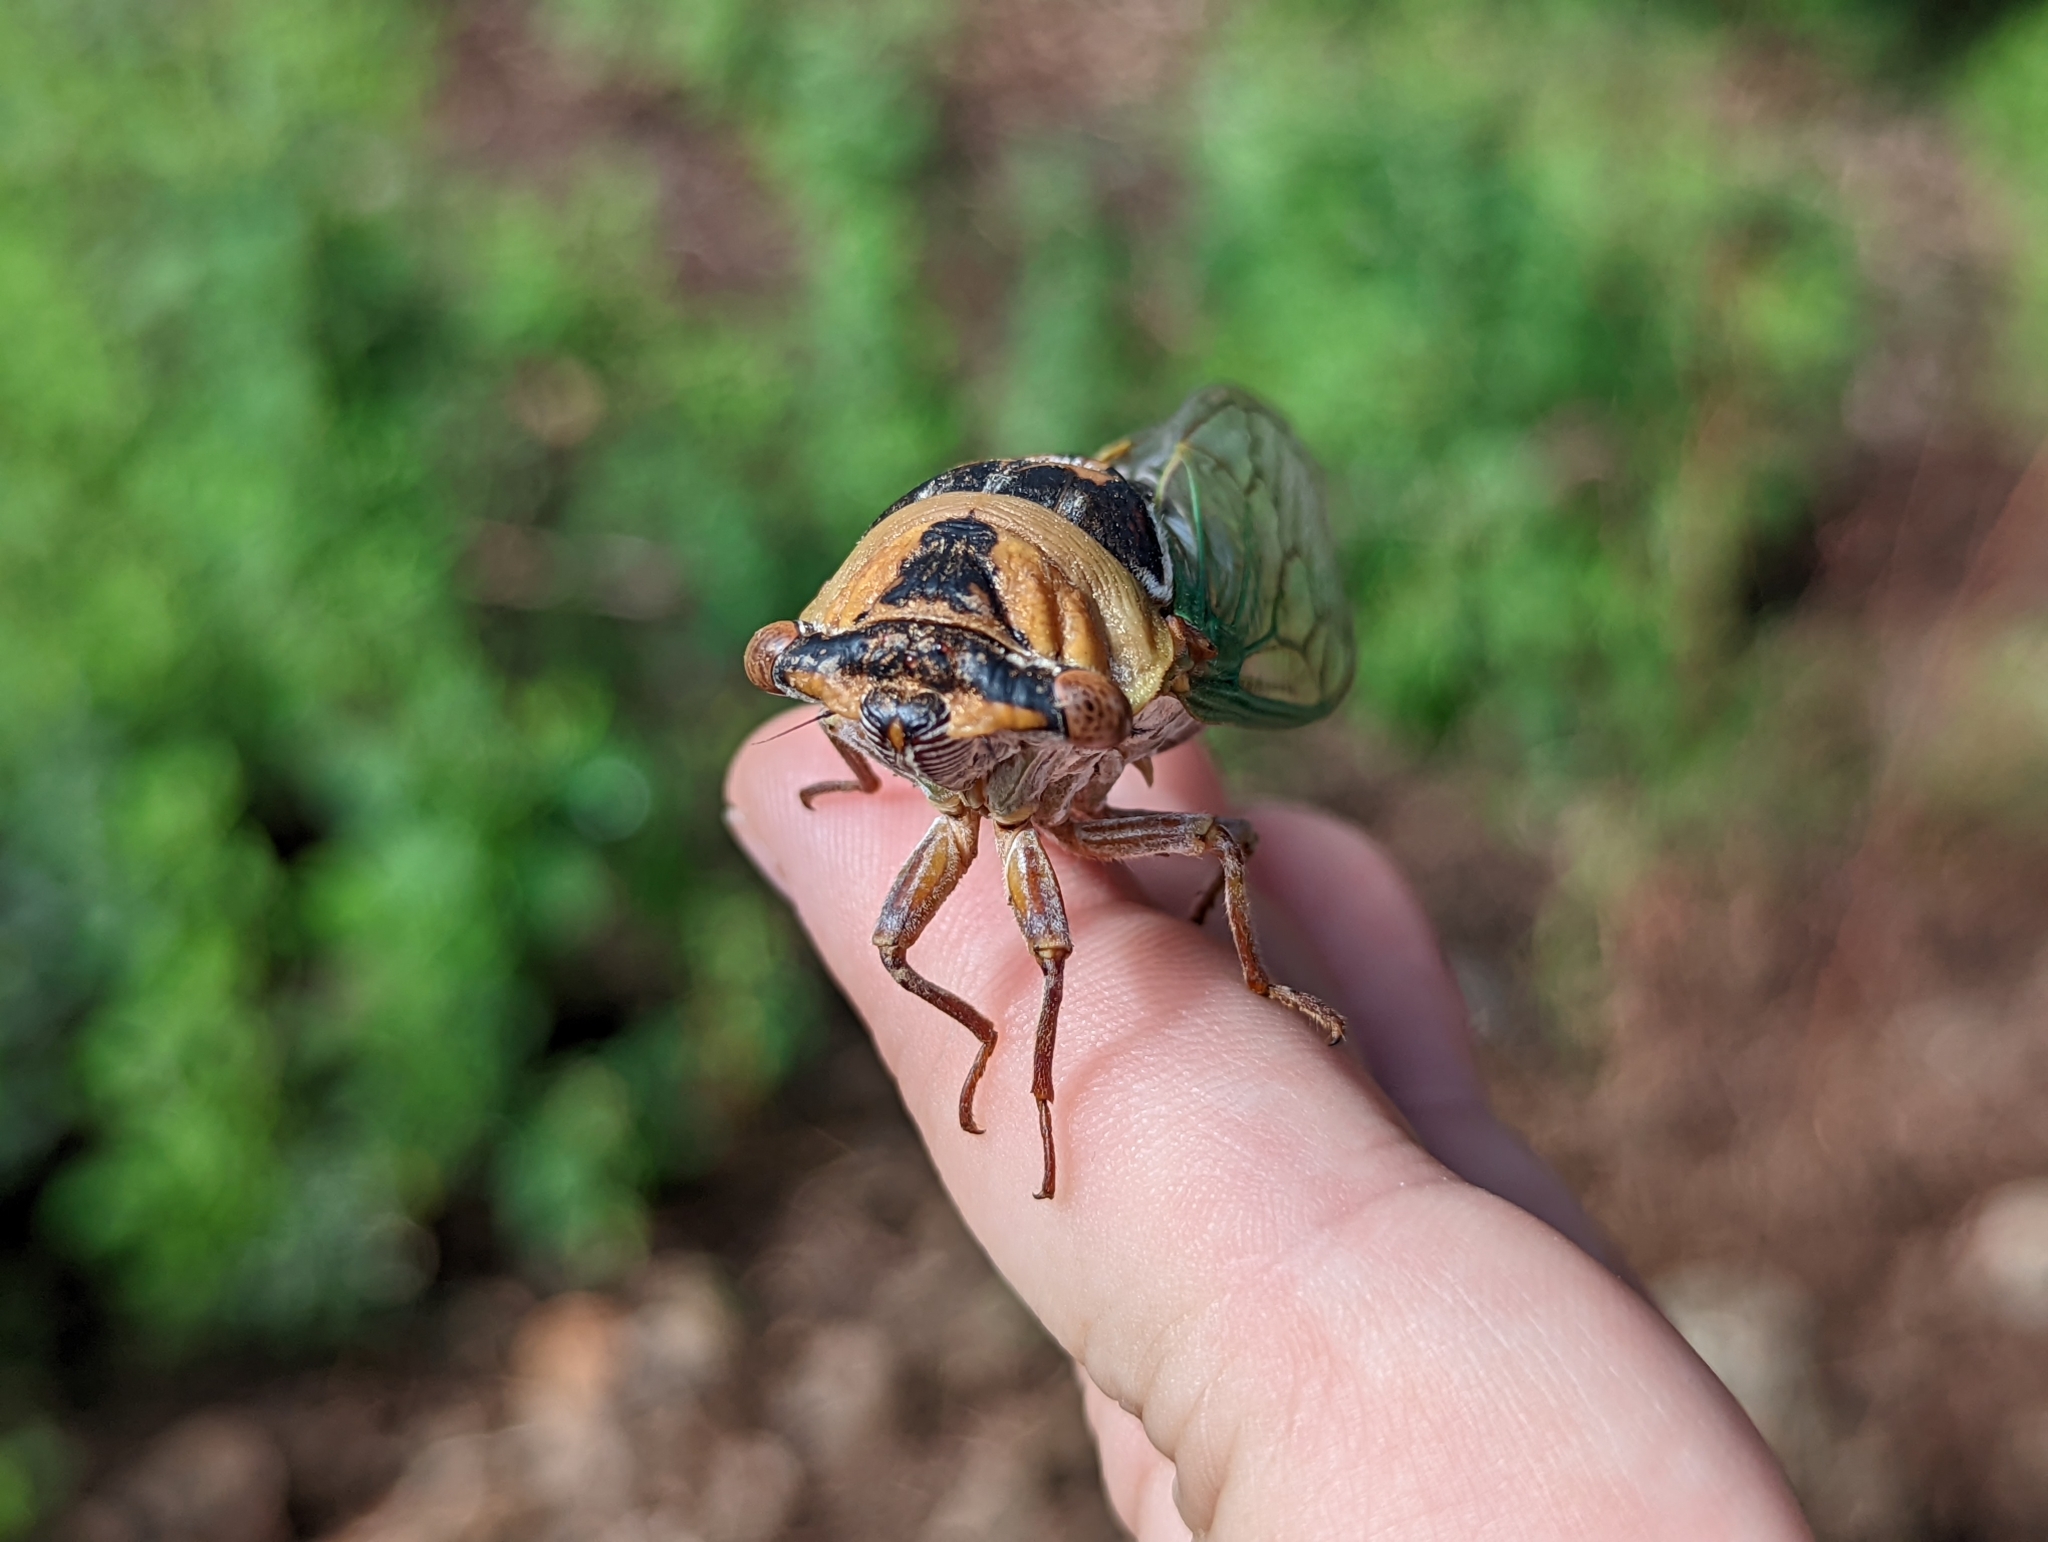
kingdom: Animalia
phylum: Arthropoda
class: Insecta
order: Hemiptera
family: Cicadidae
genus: Megatibicen
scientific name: Megatibicen cultriformis
